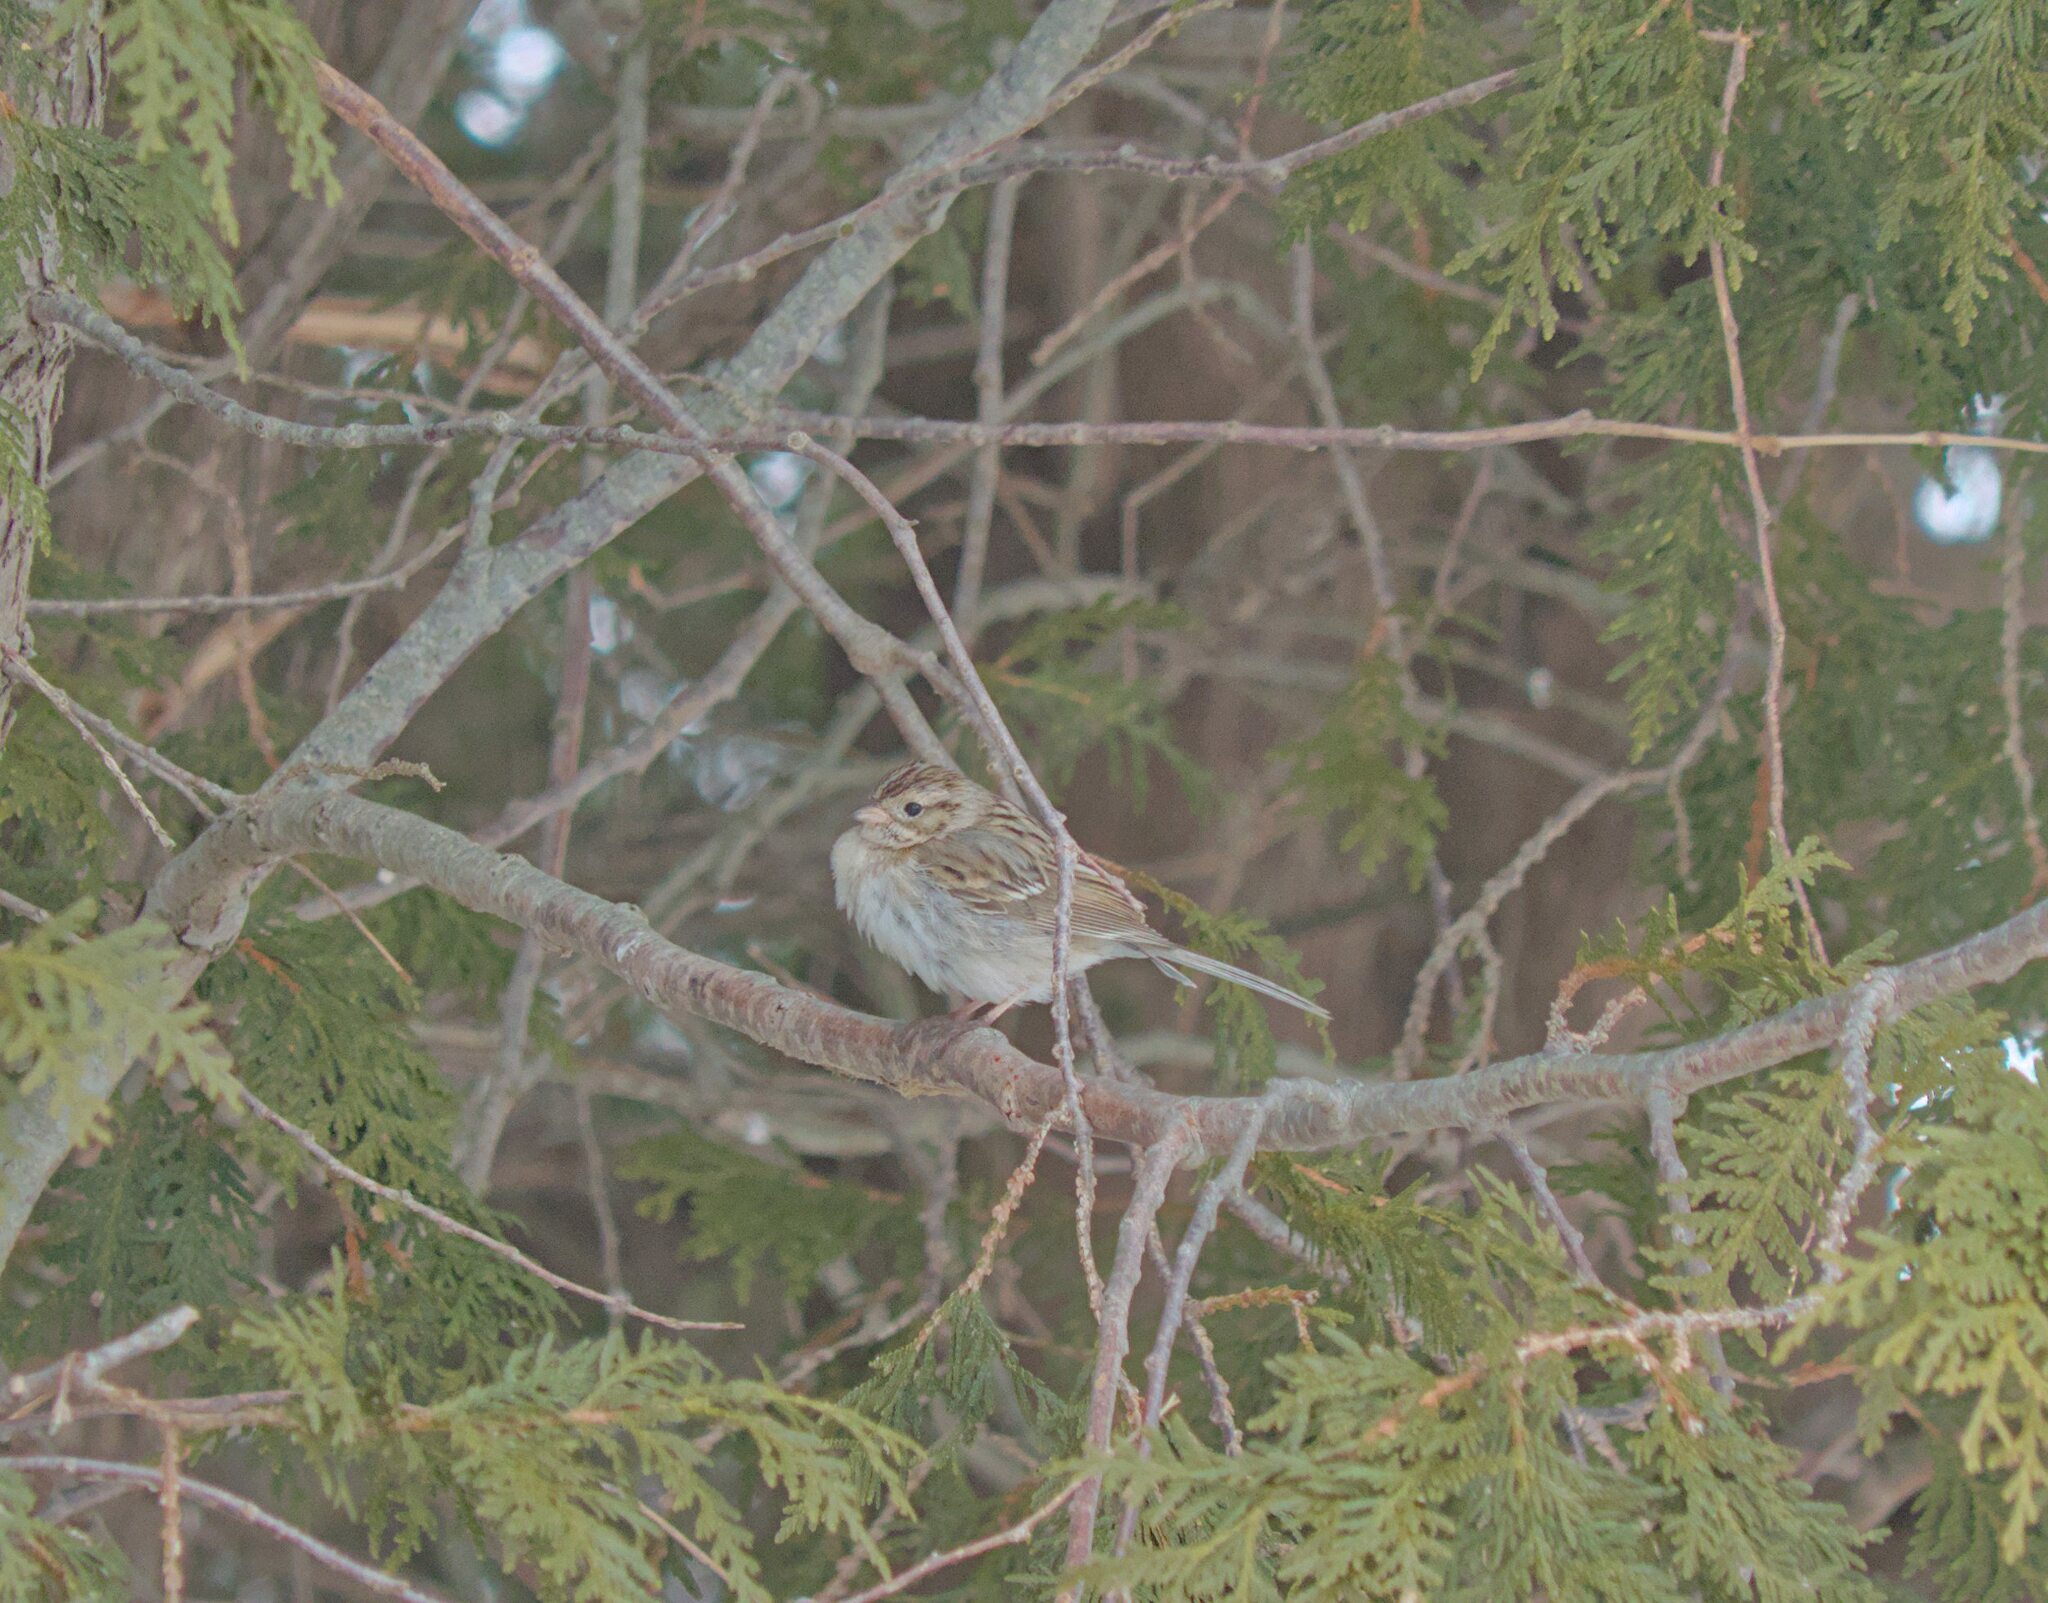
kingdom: Animalia
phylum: Chordata
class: Aves
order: Passeriformes
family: Passerellidae
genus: Spizella
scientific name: Spizella breweri
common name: Brewer's sparrow
